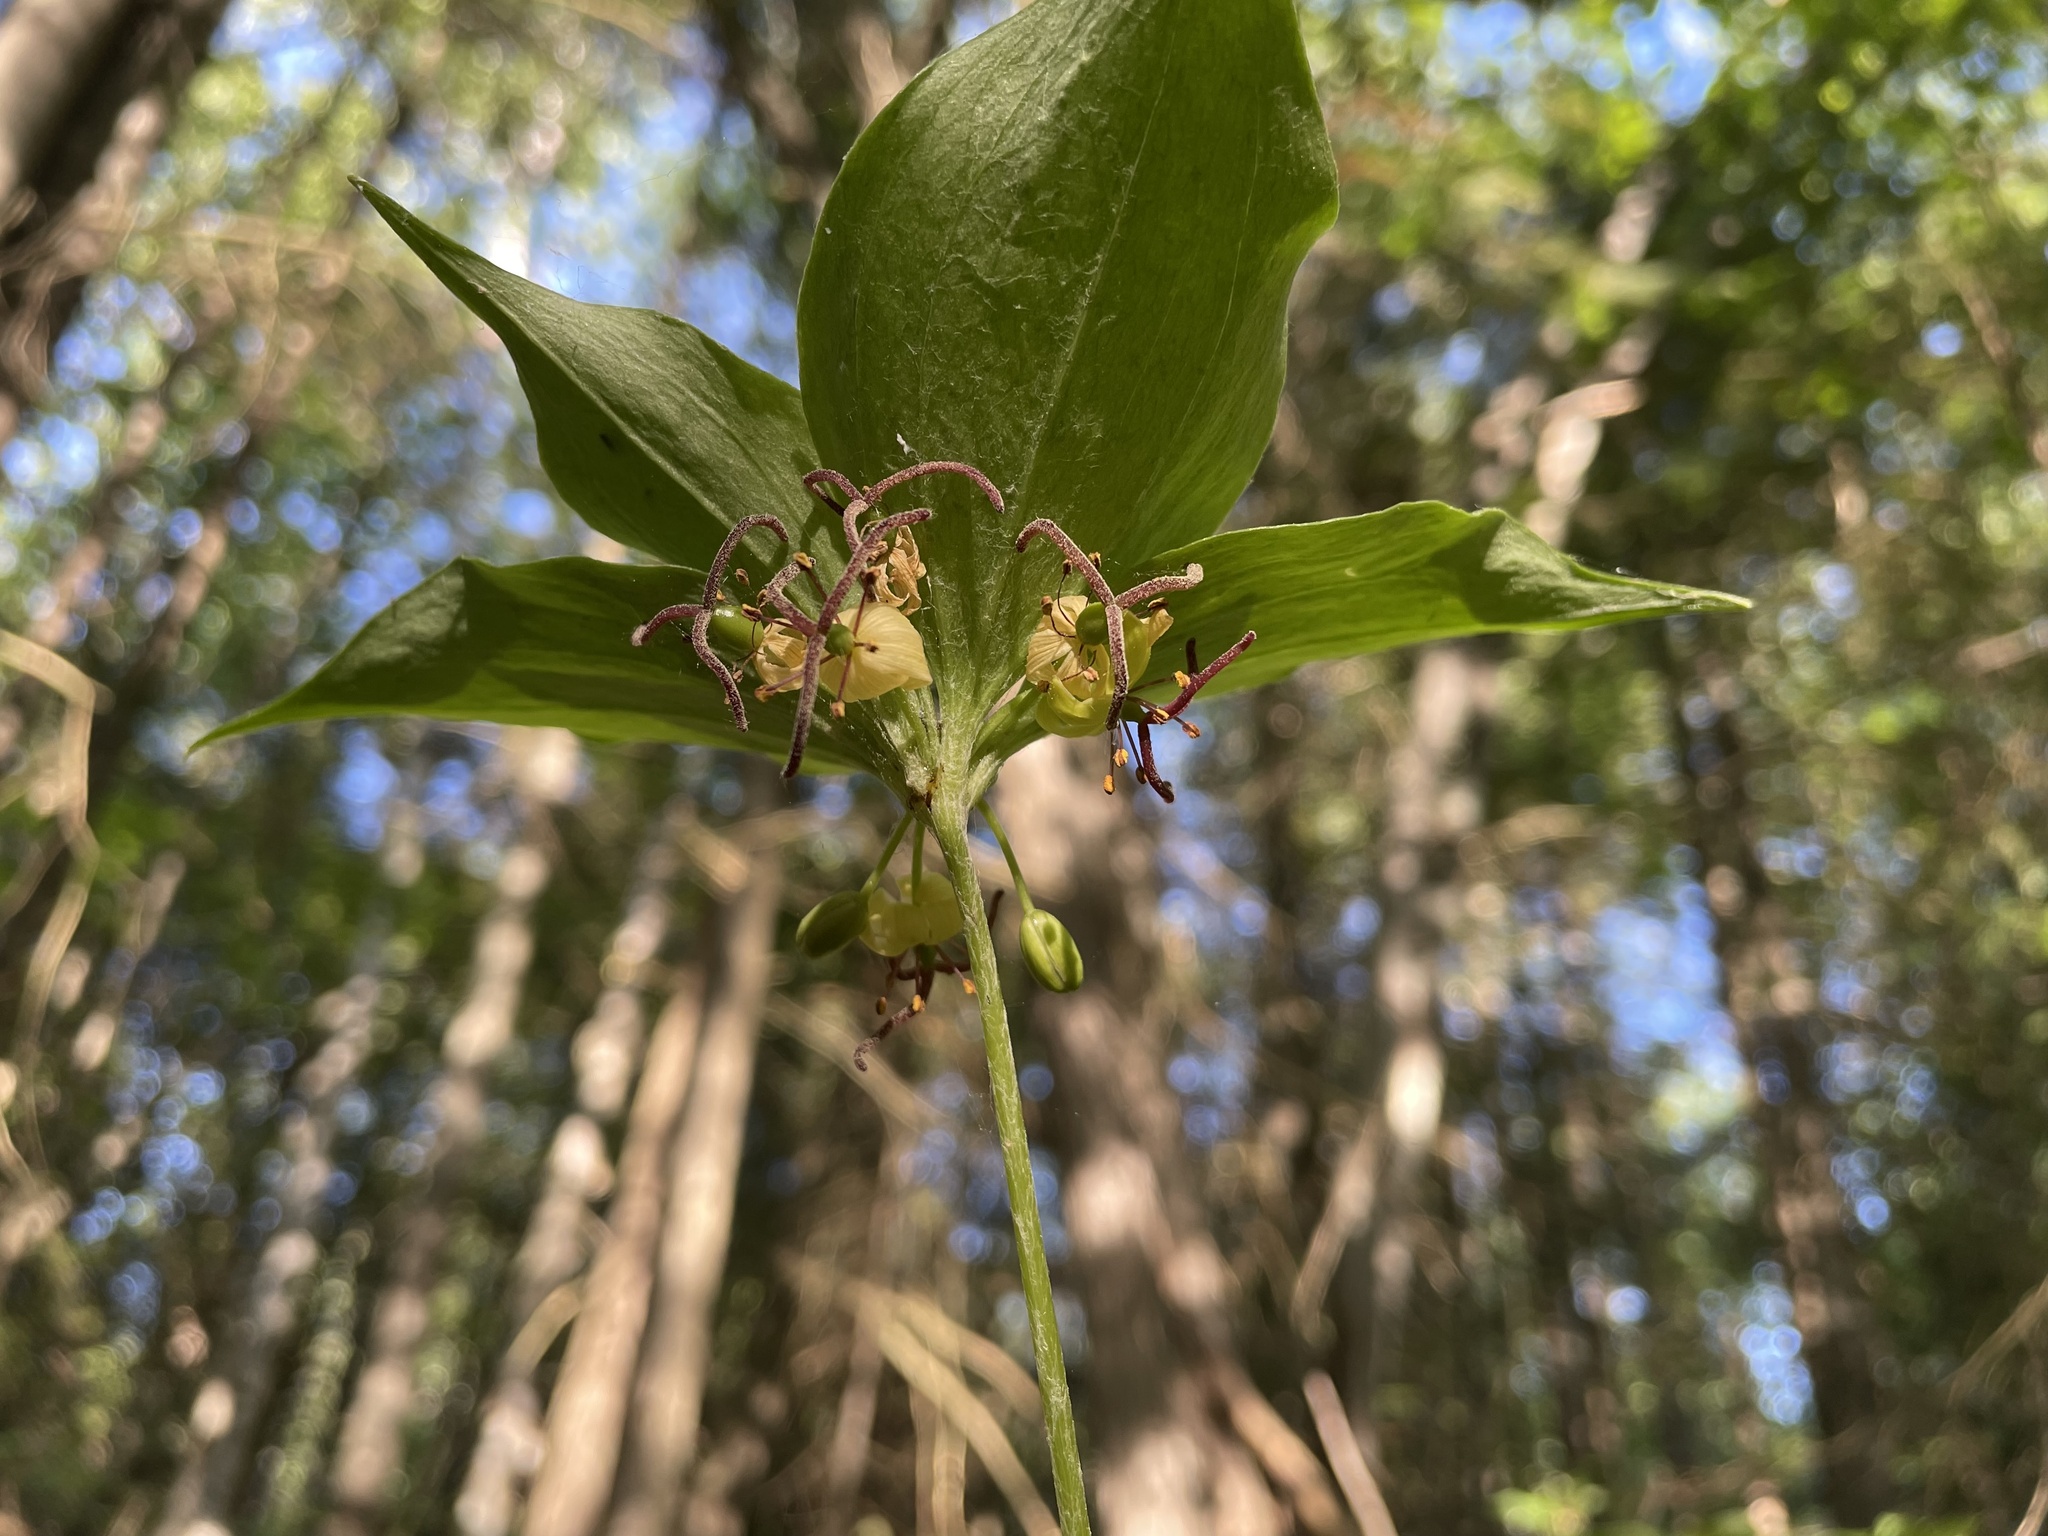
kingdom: Plantae
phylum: Tracheophyta
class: Liliopsida
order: Liliales
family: Liliaceae
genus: Medeola
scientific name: Medeola virginiana
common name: Indian cucumber-root
